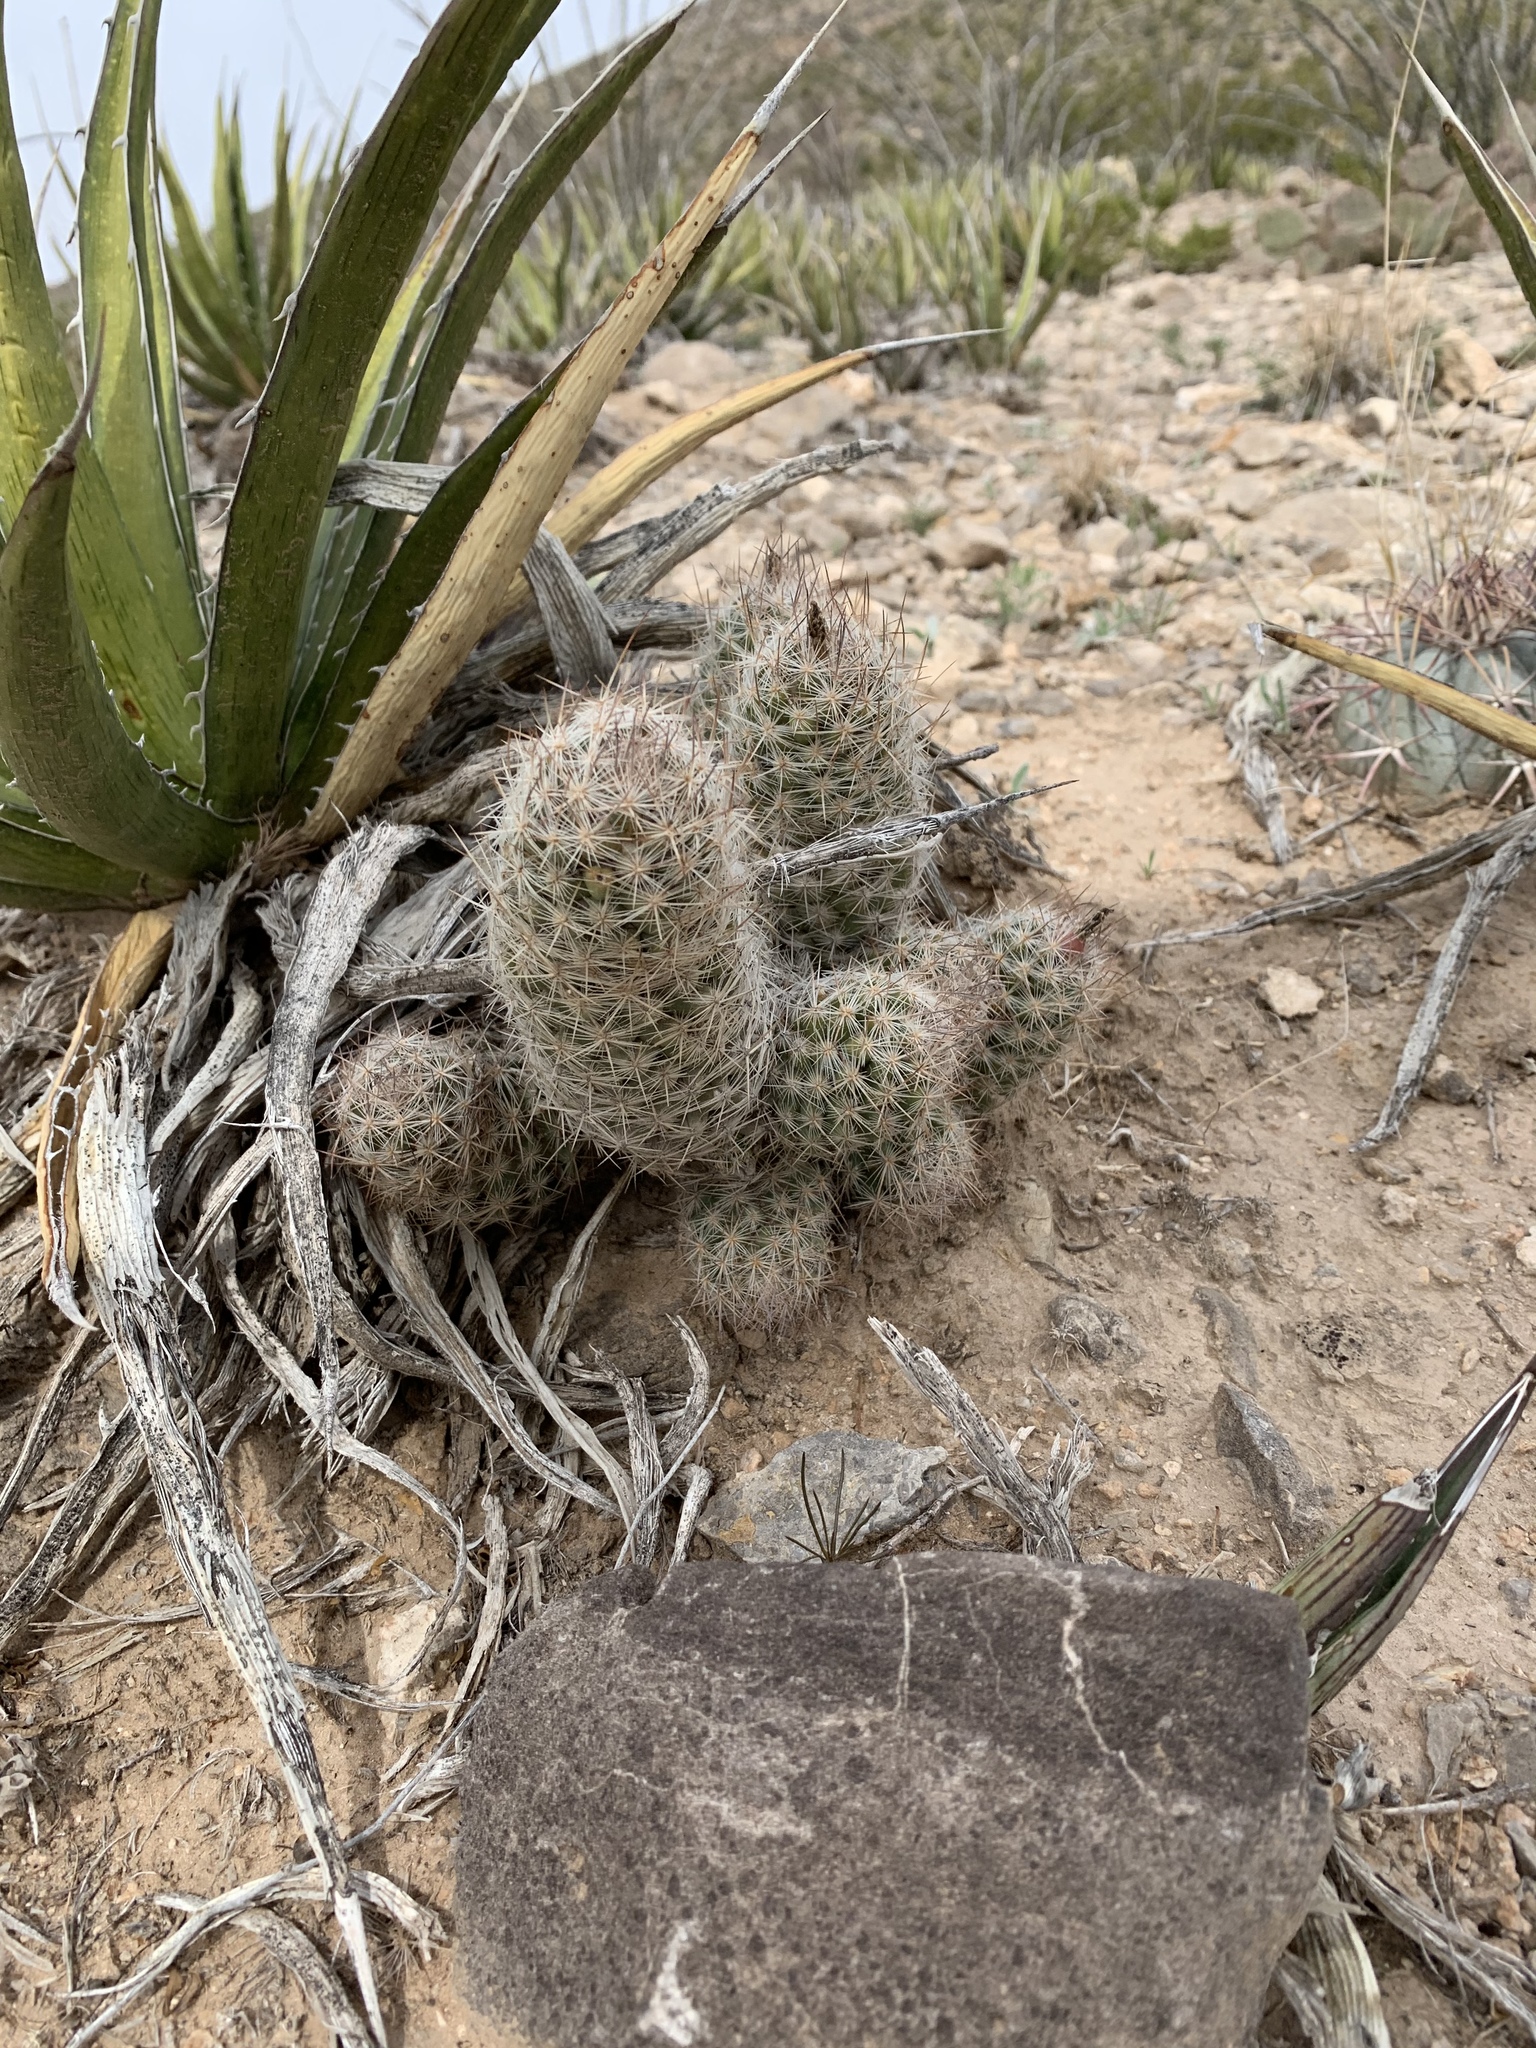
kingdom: Plantae
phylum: Tracheophyta
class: Magnoliopsida
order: Caryophyllales
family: Cactaceae
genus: Pelecyphora
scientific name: Pelecyphora tuberculosa
